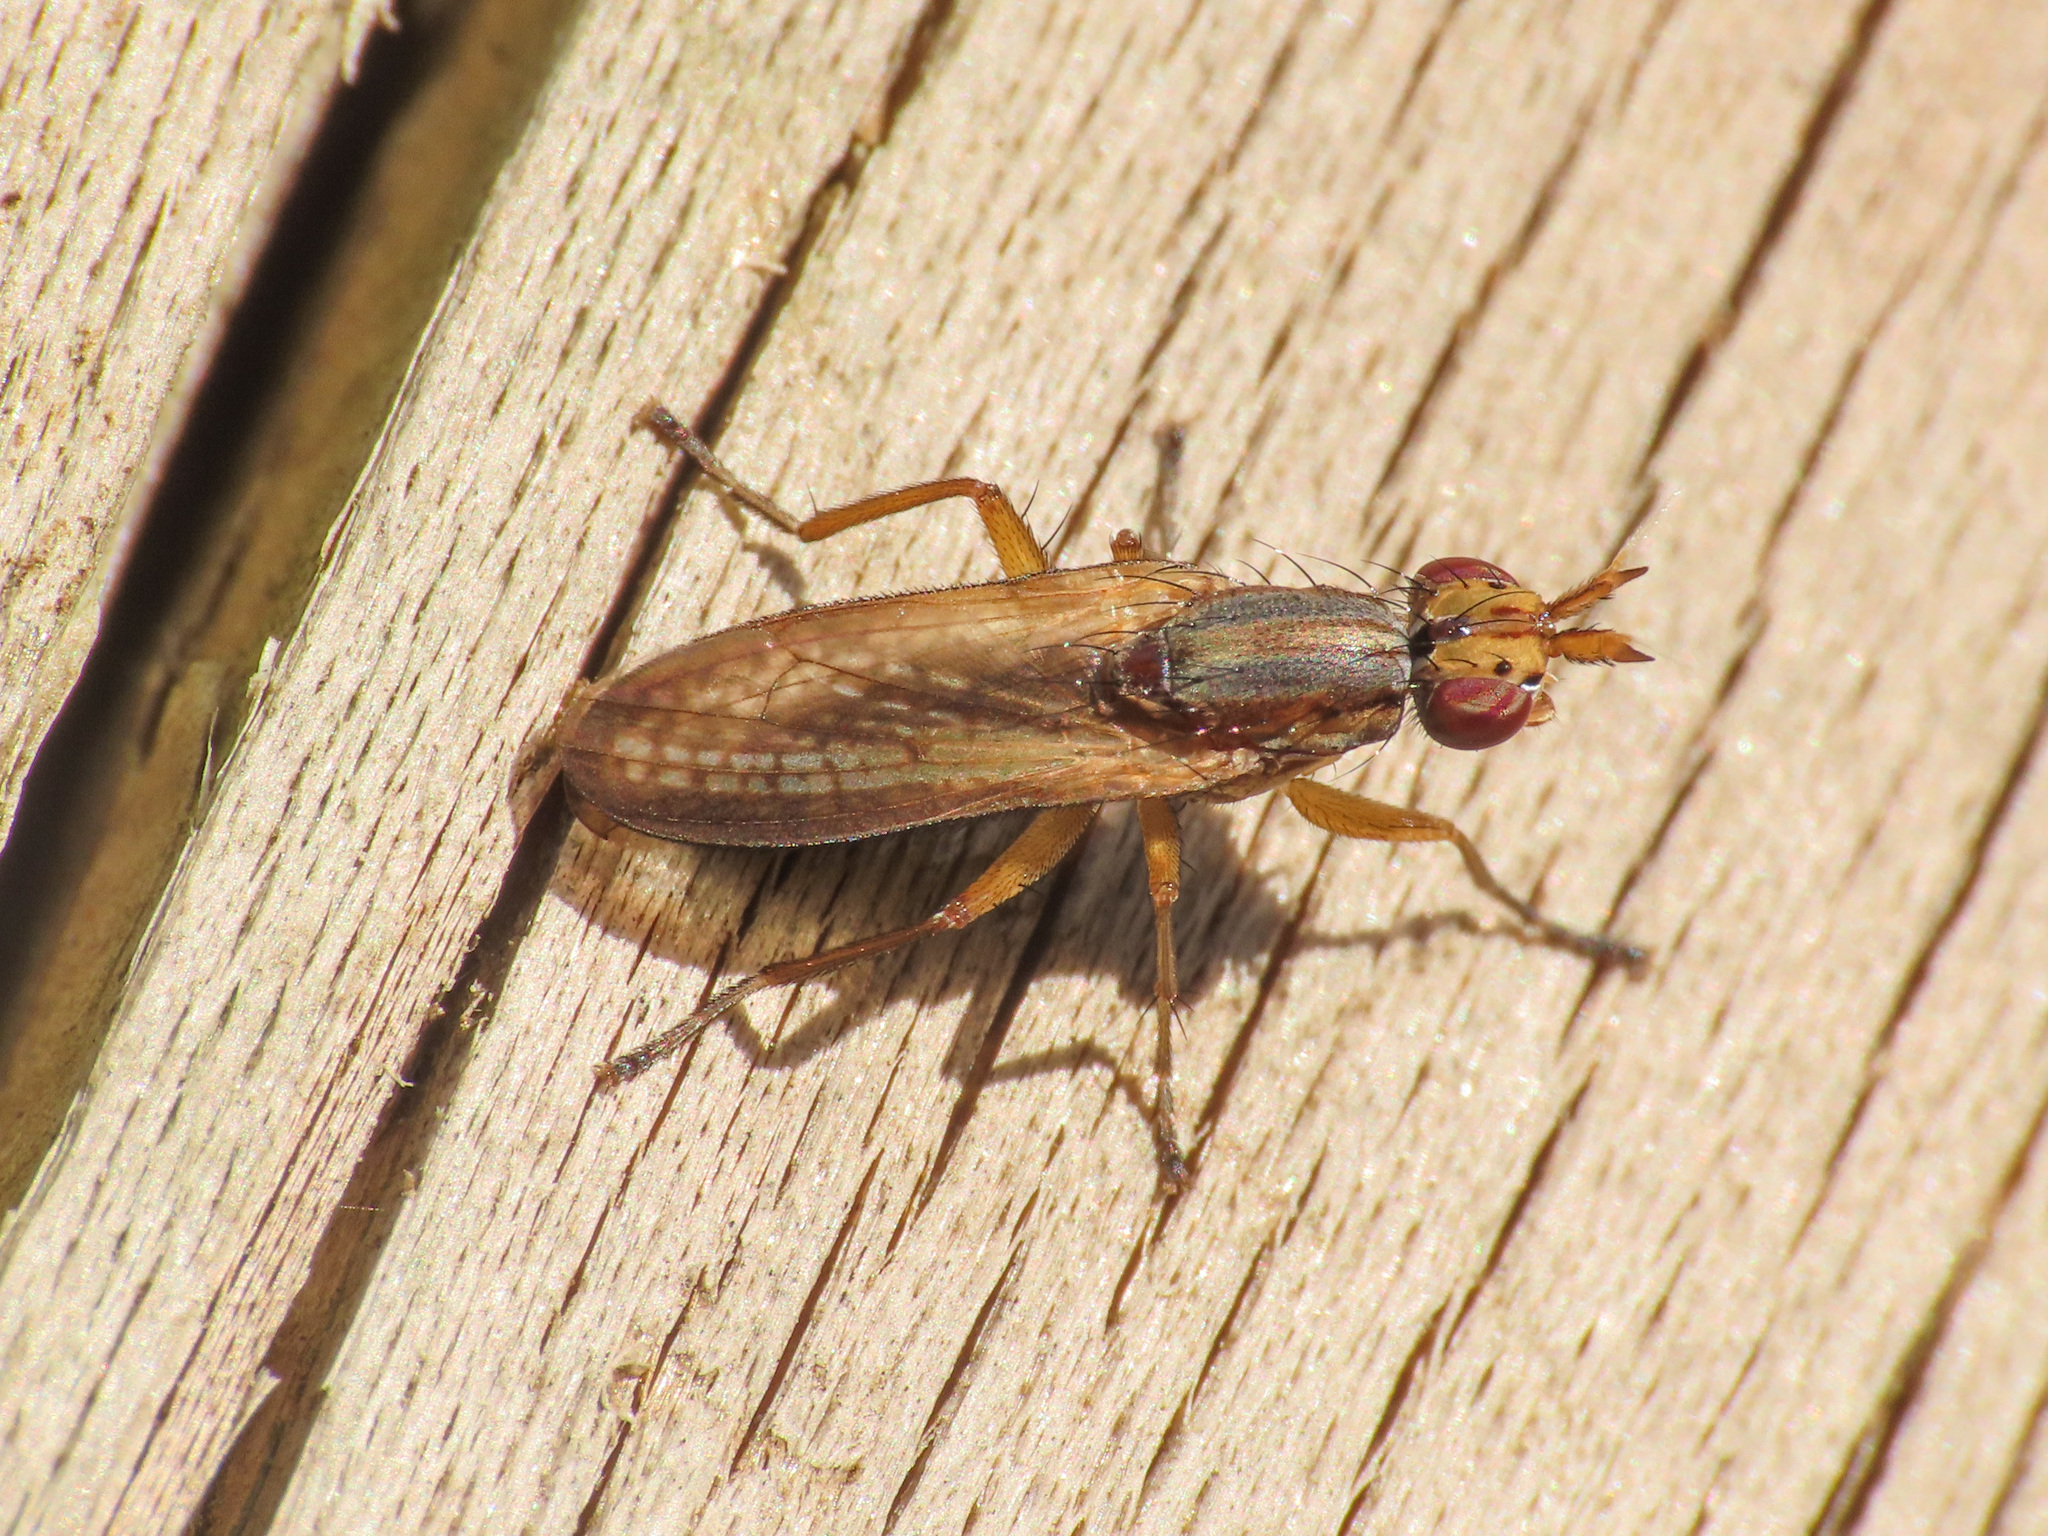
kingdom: Animalia
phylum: Arthropoda
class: Insecta
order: Diptera
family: Sciomyzidae
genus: Limnia
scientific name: Limnia unguicornis
